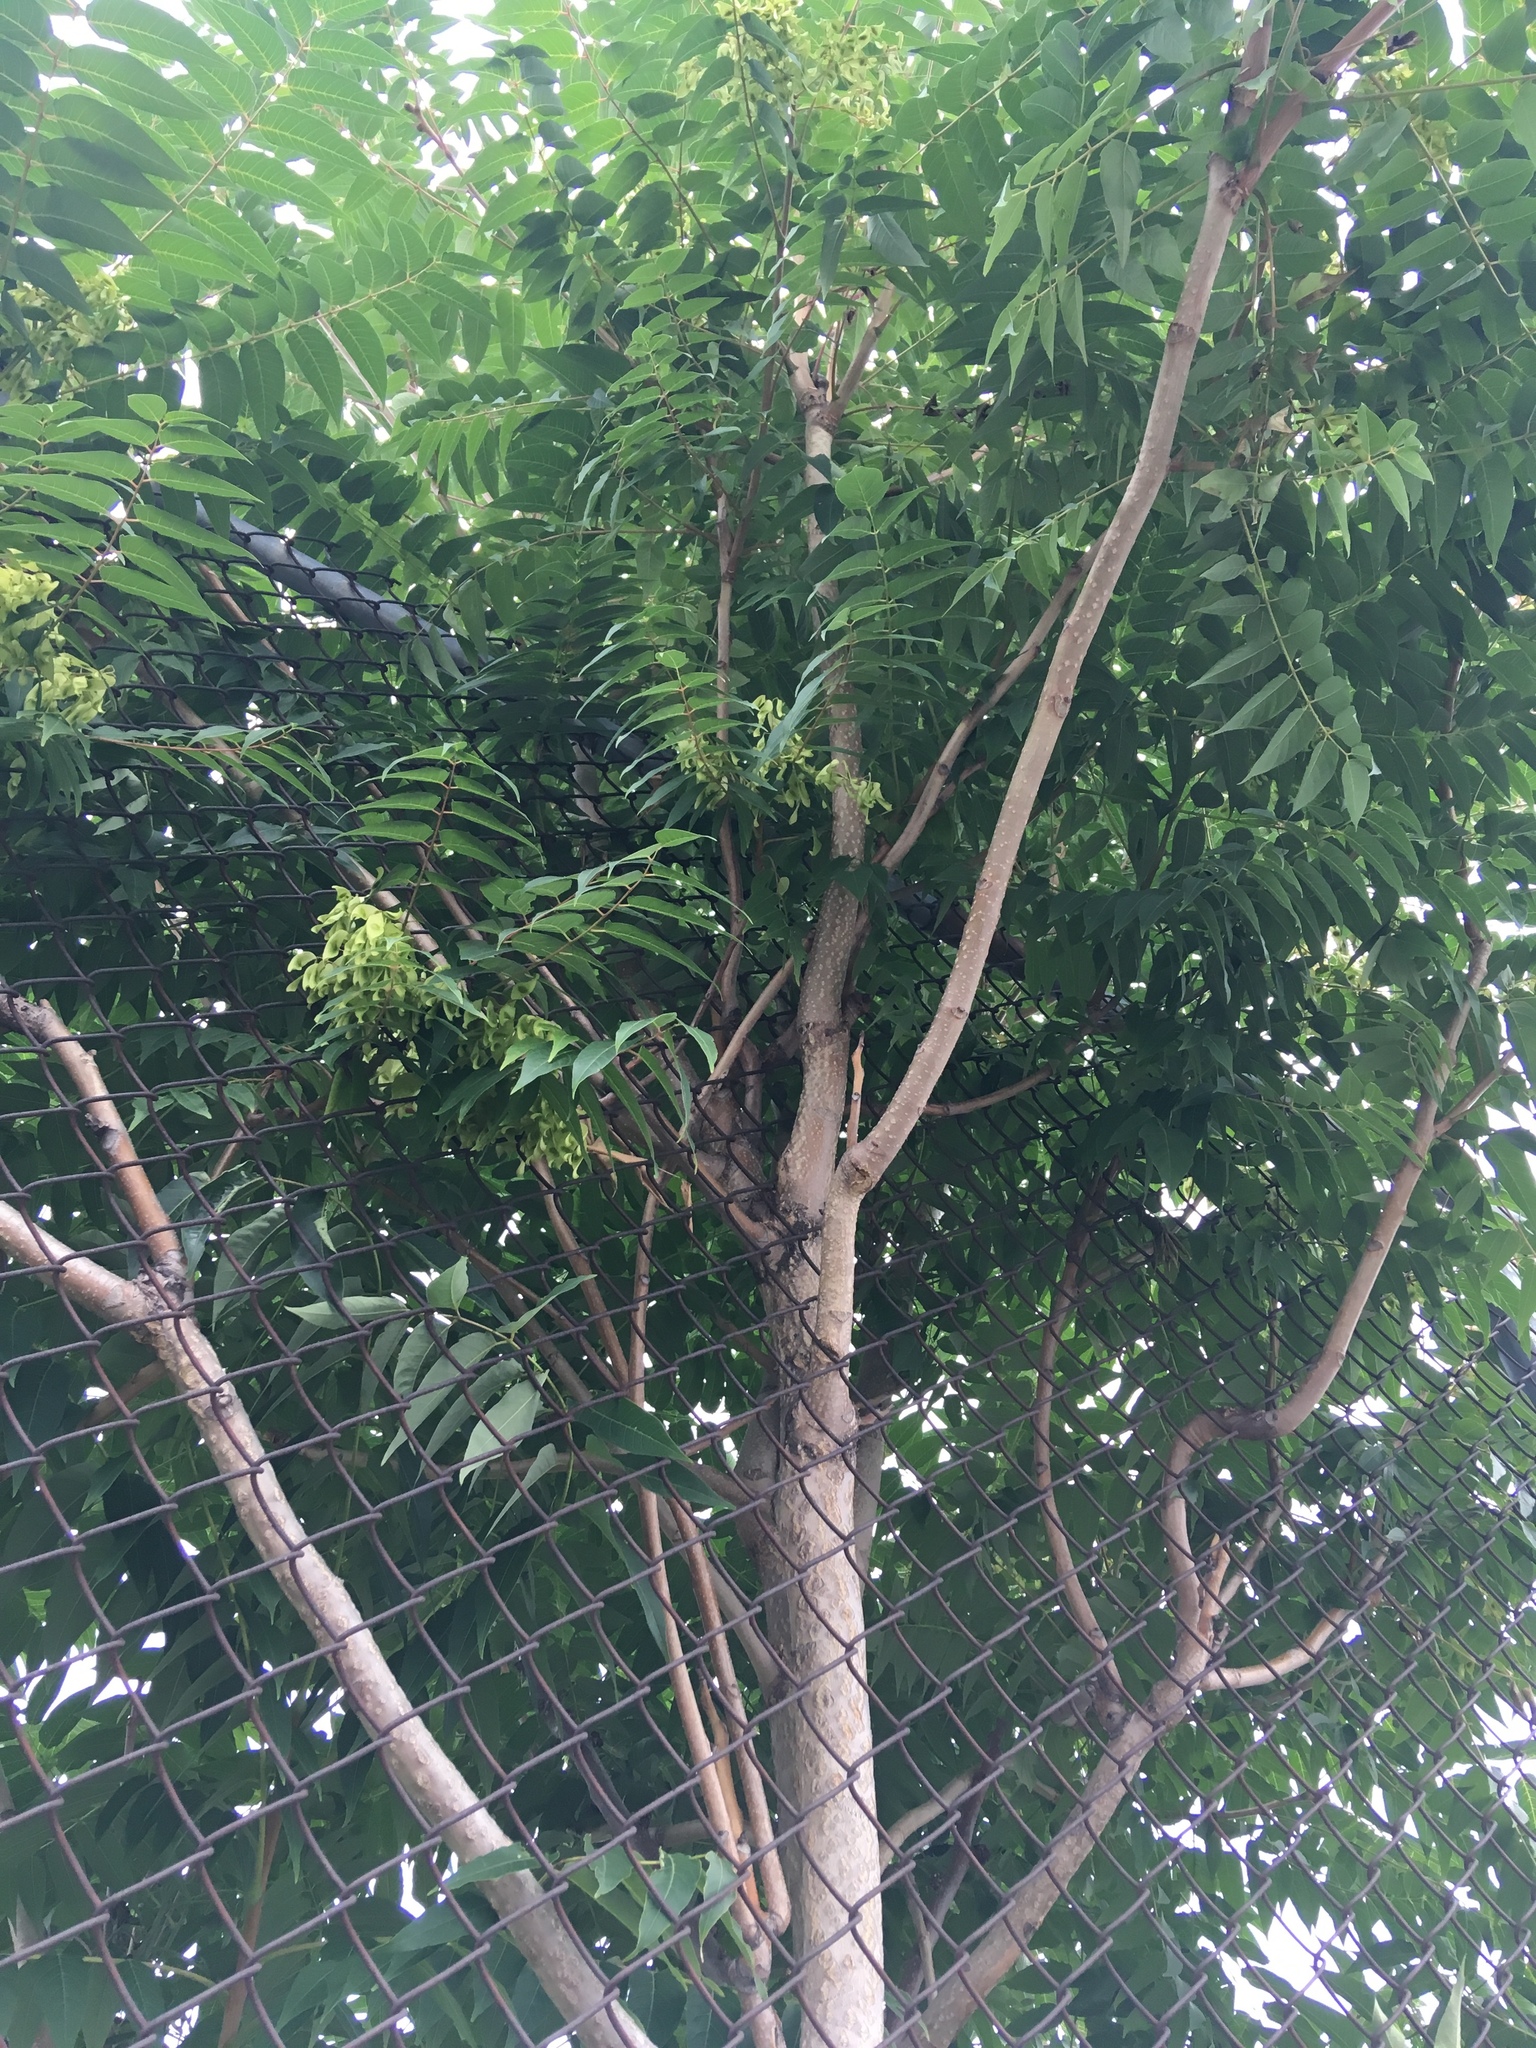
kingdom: Plantae
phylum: Tracheophyta
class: Magnoliopsida
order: Sapindales
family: Simaroubaceae
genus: Ailanthus
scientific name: Ailanthus altissima
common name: Tree-of-heaven
